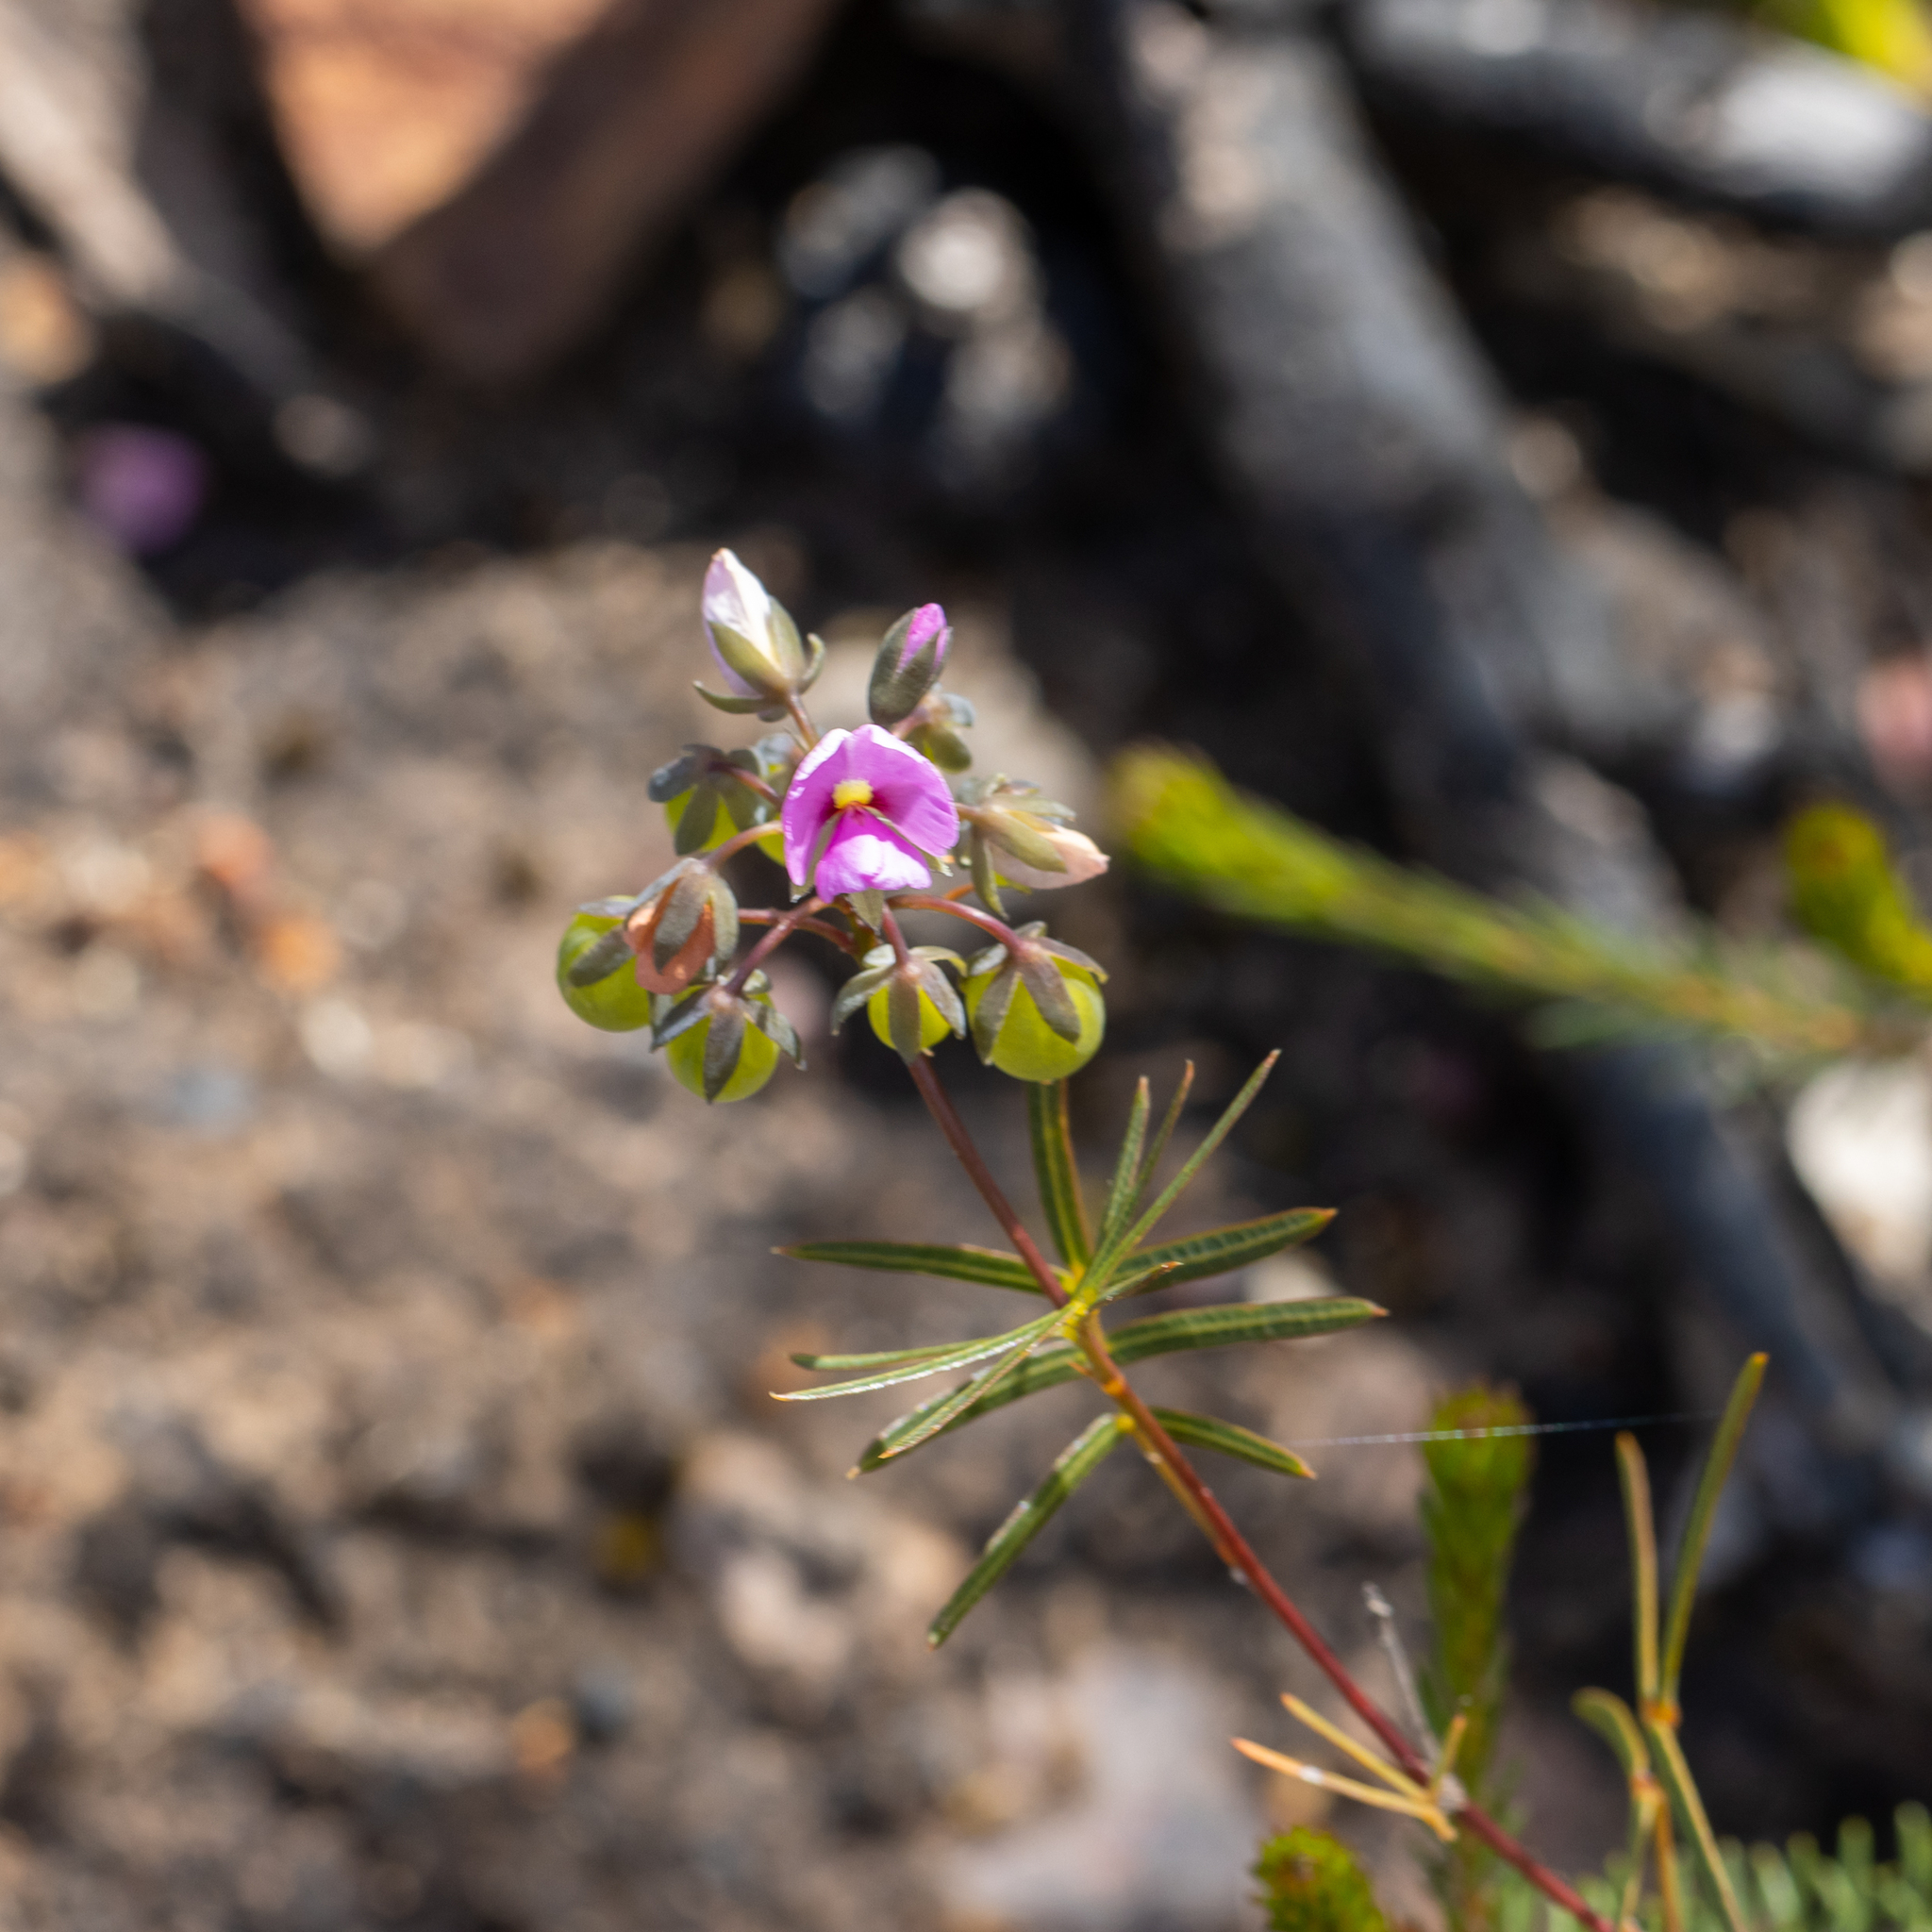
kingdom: Plantae
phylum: Tracheophyta
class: Magnoliopsida
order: Fabales
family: Fabaceae
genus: Gompholobium
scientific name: Gompholobium knightianum
